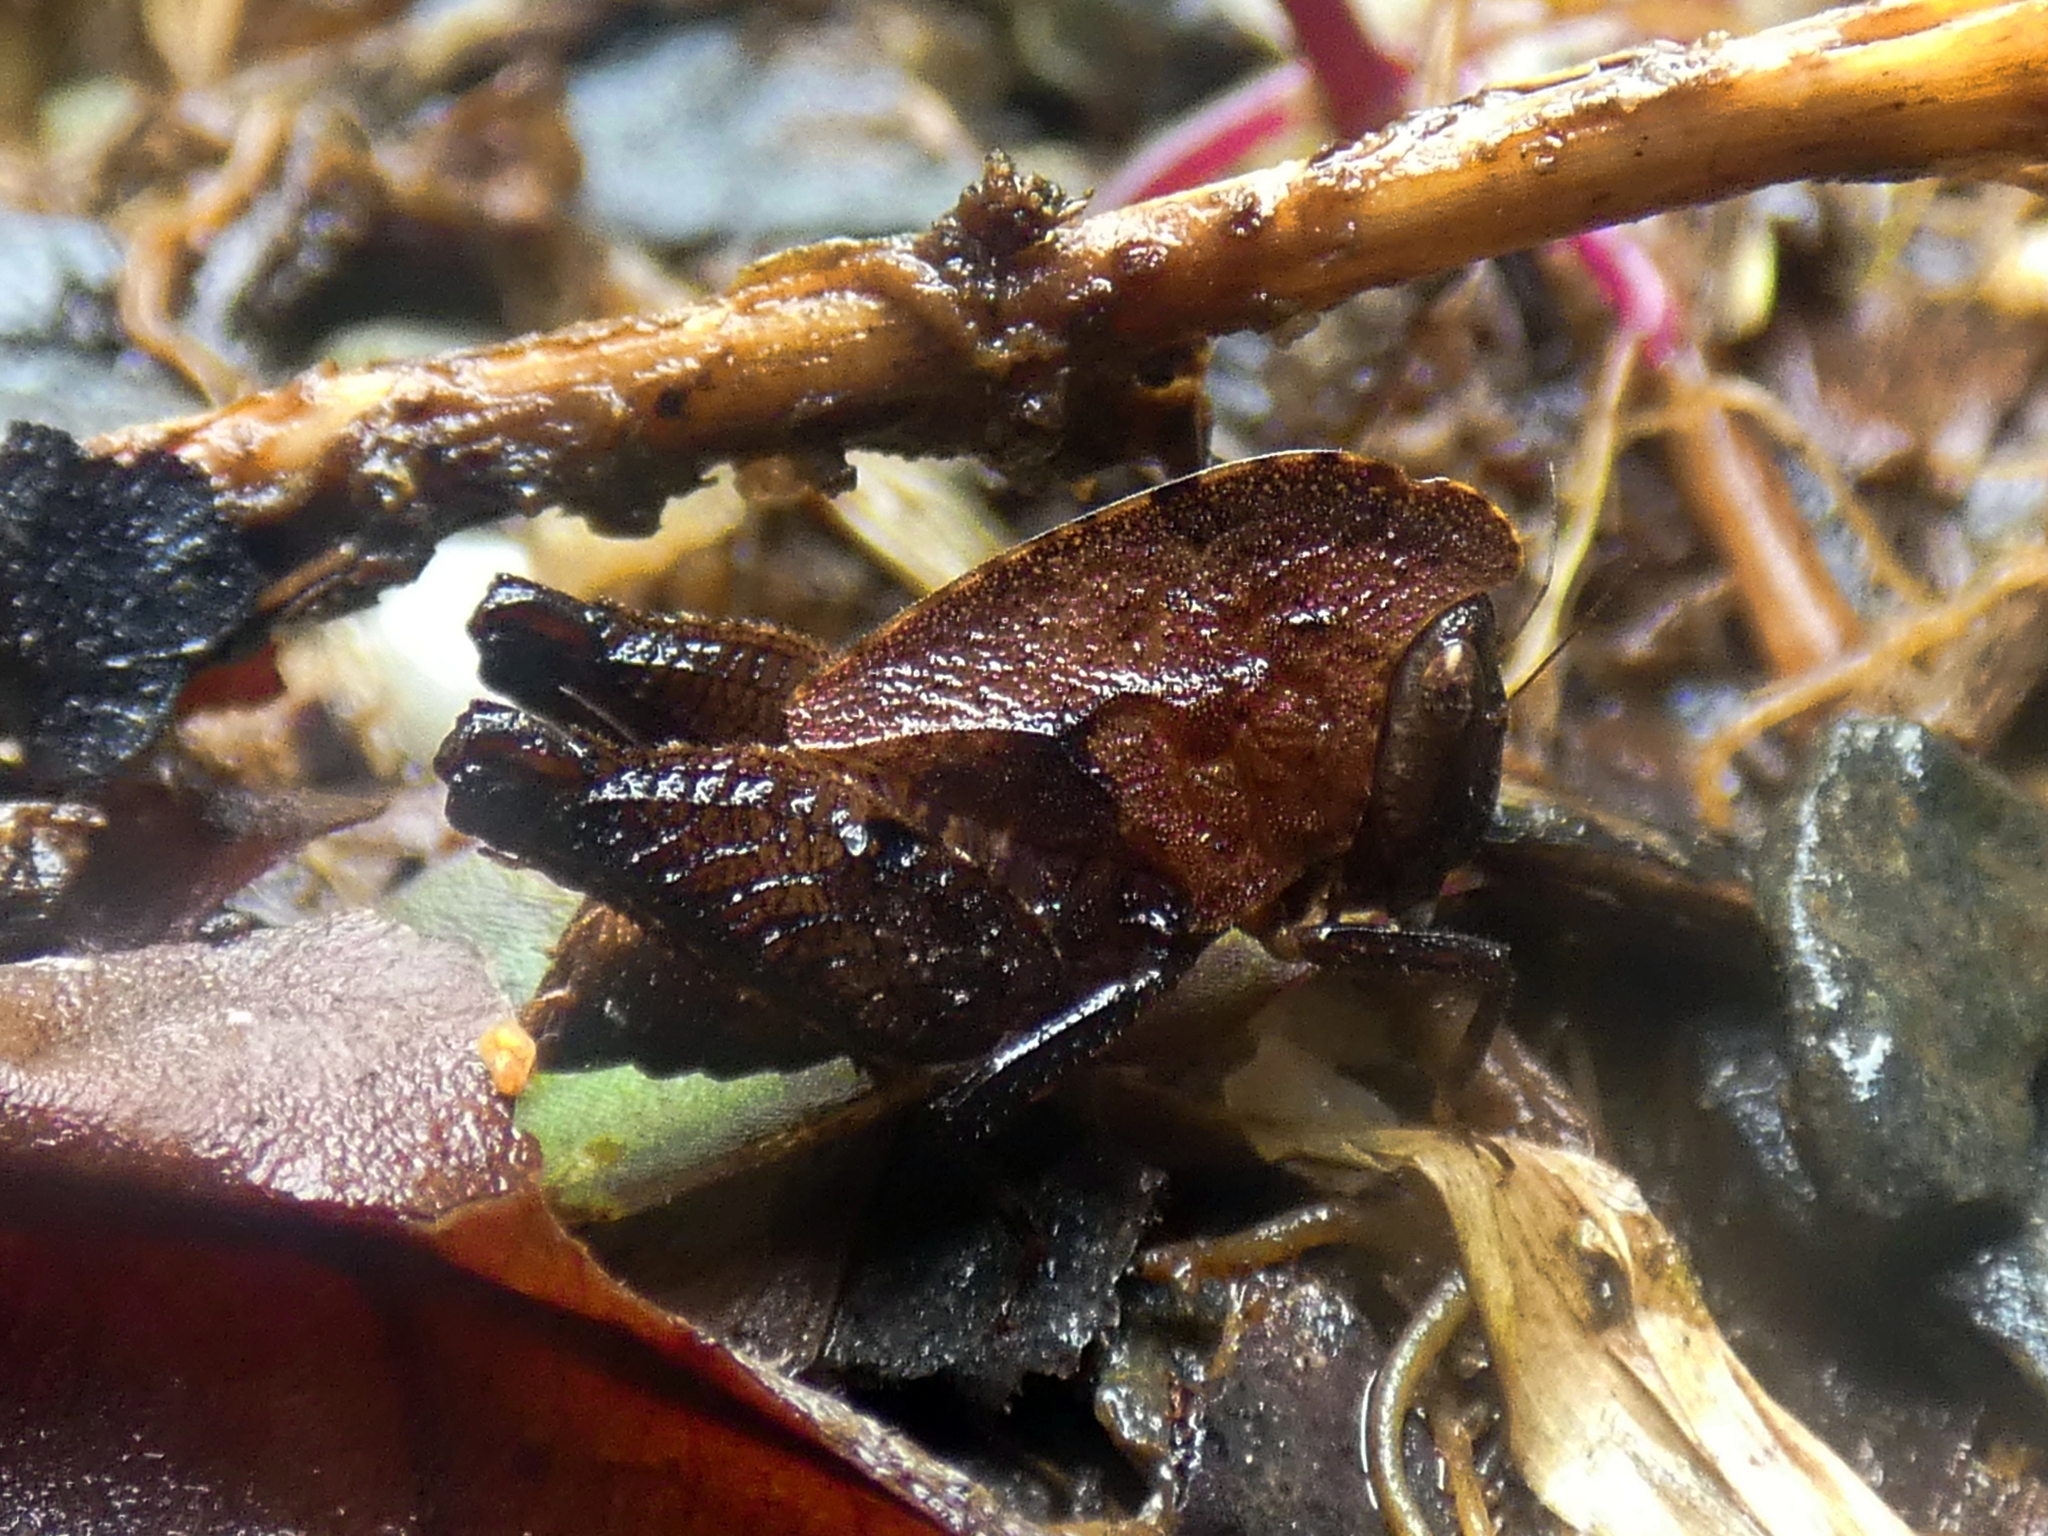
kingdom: Animalia
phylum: Arthropoda
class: Insecta
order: Orthoptera
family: Tetrigidae
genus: Selivinga
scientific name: Selivinga tribulata
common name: Tribulation helmed groundhopper
